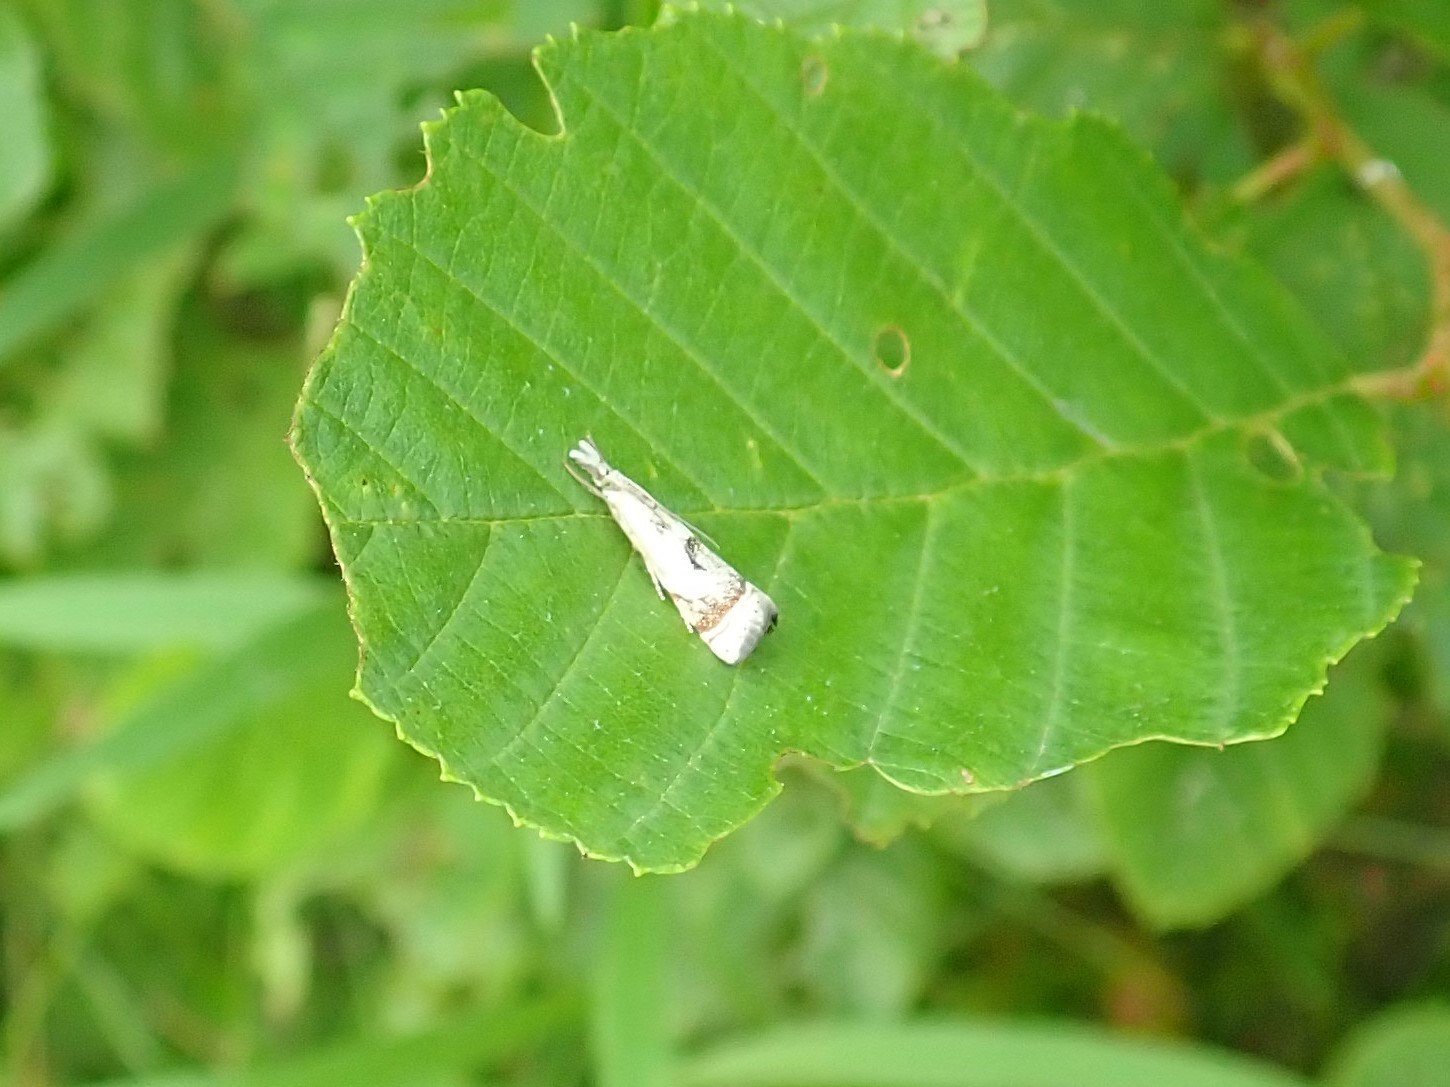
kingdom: Animalia
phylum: Arthropoda
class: Insecta
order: Lepidoptera
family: Crambidae
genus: Microcrambus
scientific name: Microcrambus elegans
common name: Elegant grass-veneer
